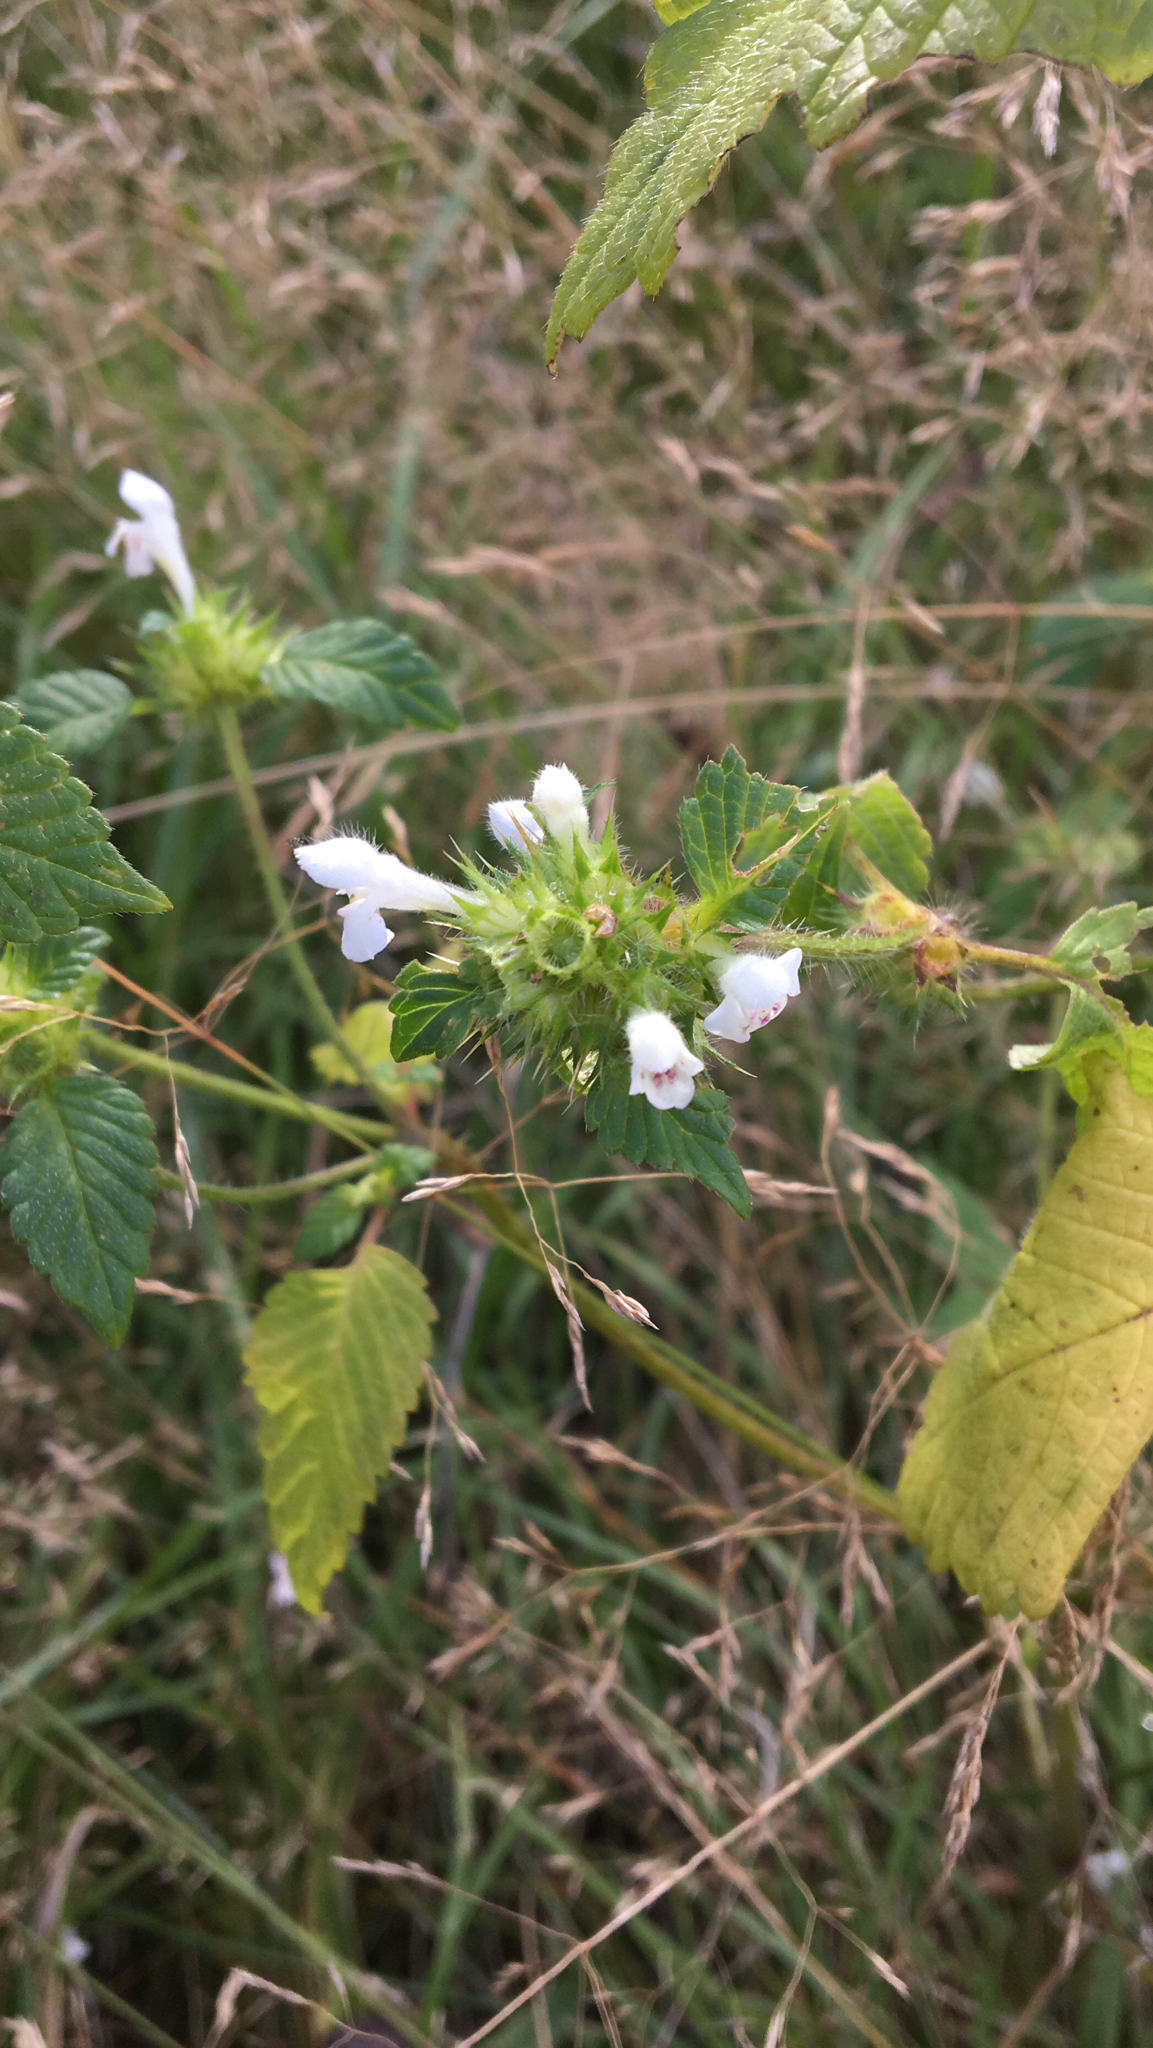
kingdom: Plantae
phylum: Tracheophyta
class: Magnoliopsida
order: Lamiales
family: Lamiaceae
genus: Galeopsis
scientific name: Galeopsis tetrahit
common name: Common hemp-nettle
